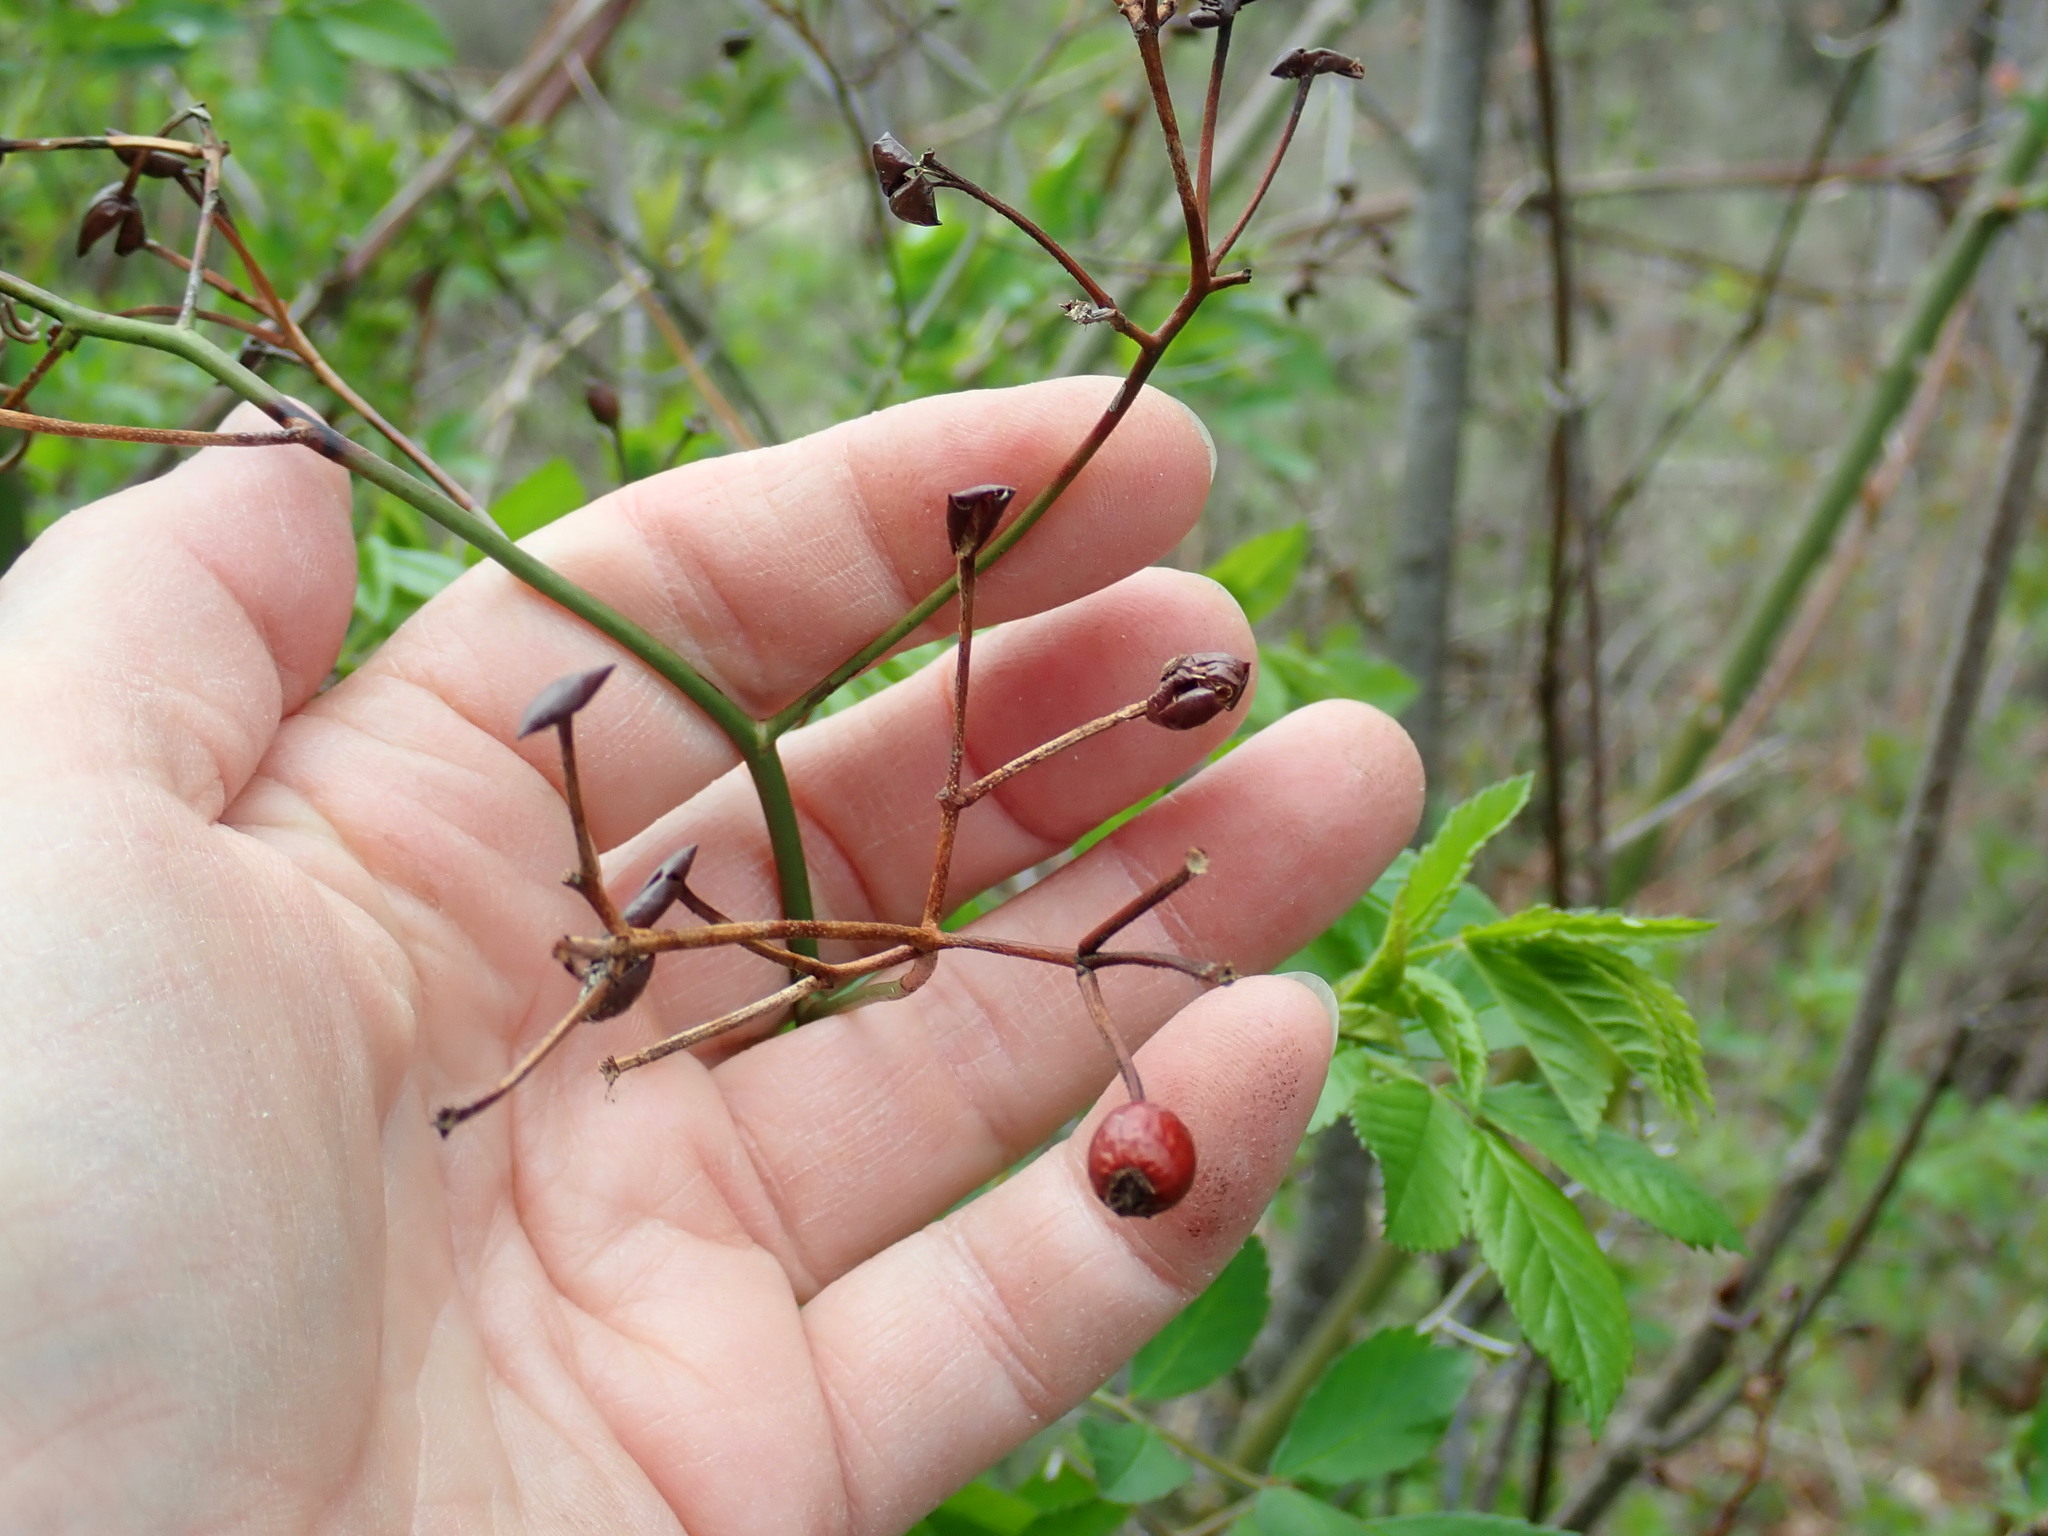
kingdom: Plantae
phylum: Tracheophyta
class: Magnoliopsida
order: Rosales
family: Rosaceae
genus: Rosa
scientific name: Rosa multiflora
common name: Multiflora rose
